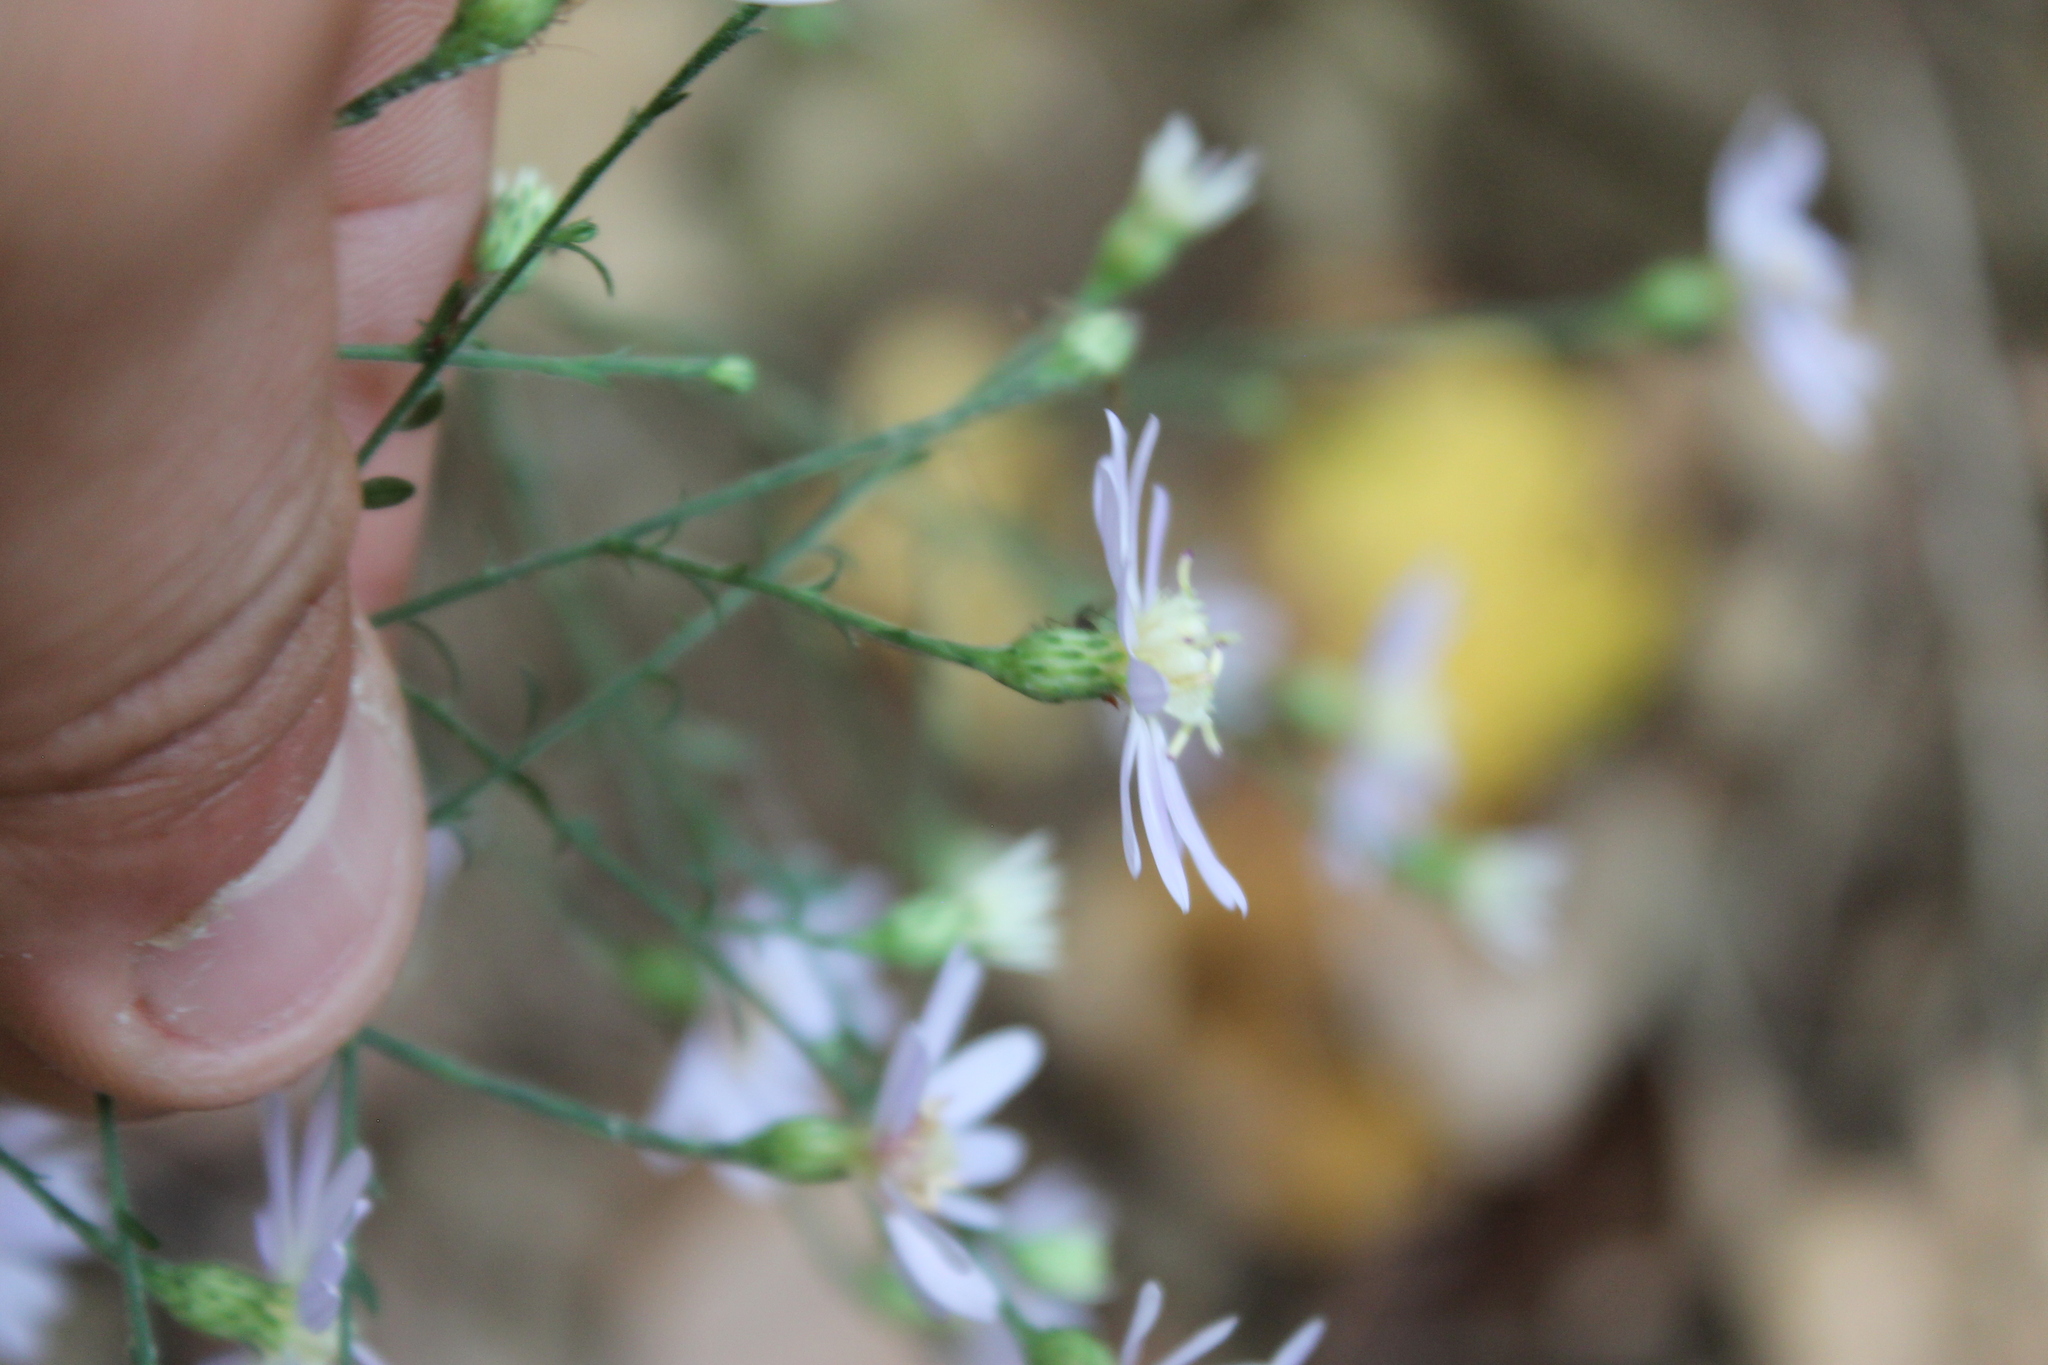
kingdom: Plantae
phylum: Tracheophyta
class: Magnoliopsida
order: Asterales
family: Asteraceae
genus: Symphyotrichum
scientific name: Symphyotrichum shortii
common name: Short's aster
